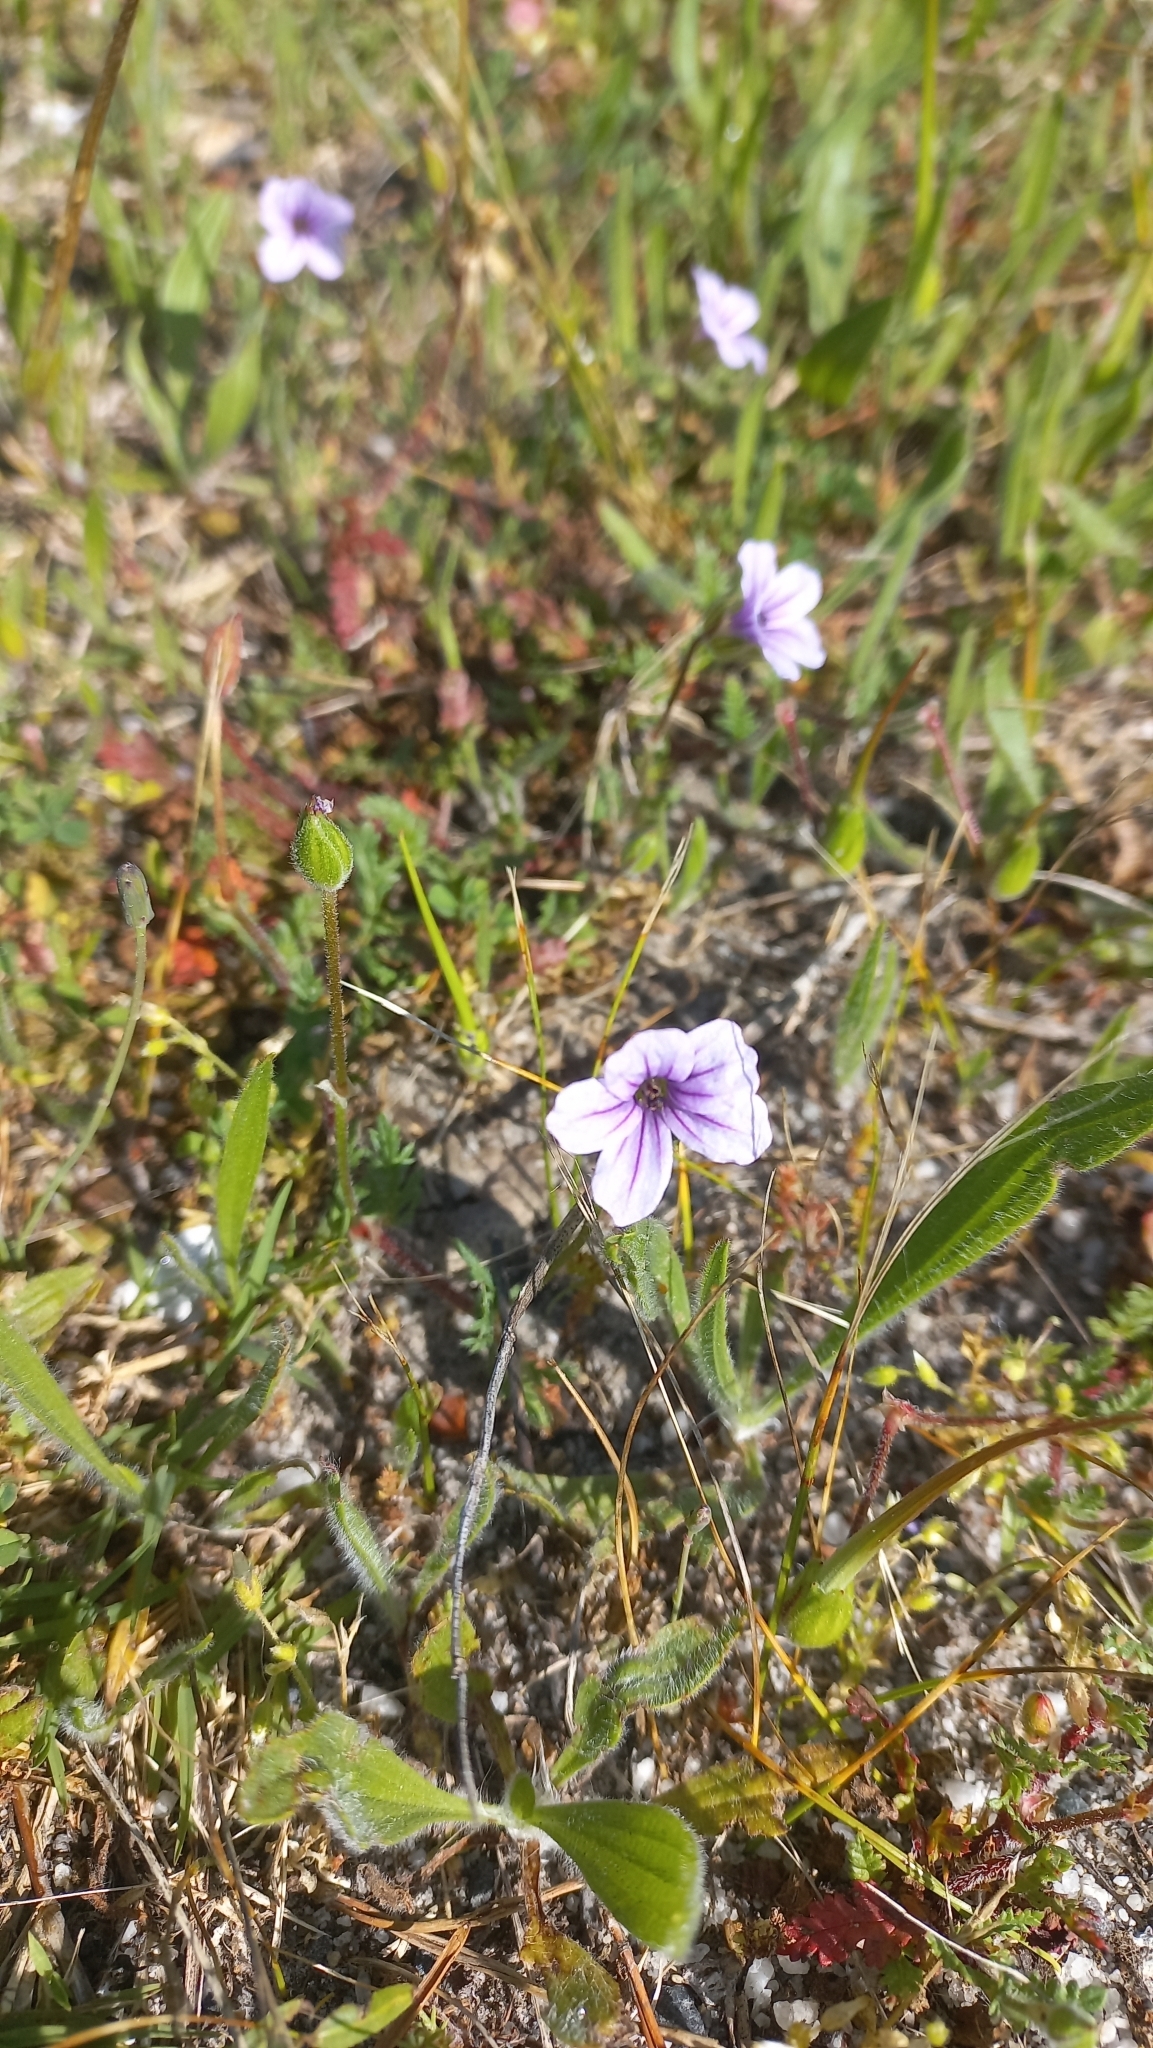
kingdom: Plantae
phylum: Tracheophyta
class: Magnoliopsida
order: Geraniales
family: Geraniaceae
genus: Erodium
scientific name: Erodium botrys
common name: Mediterranean stork's-bill
